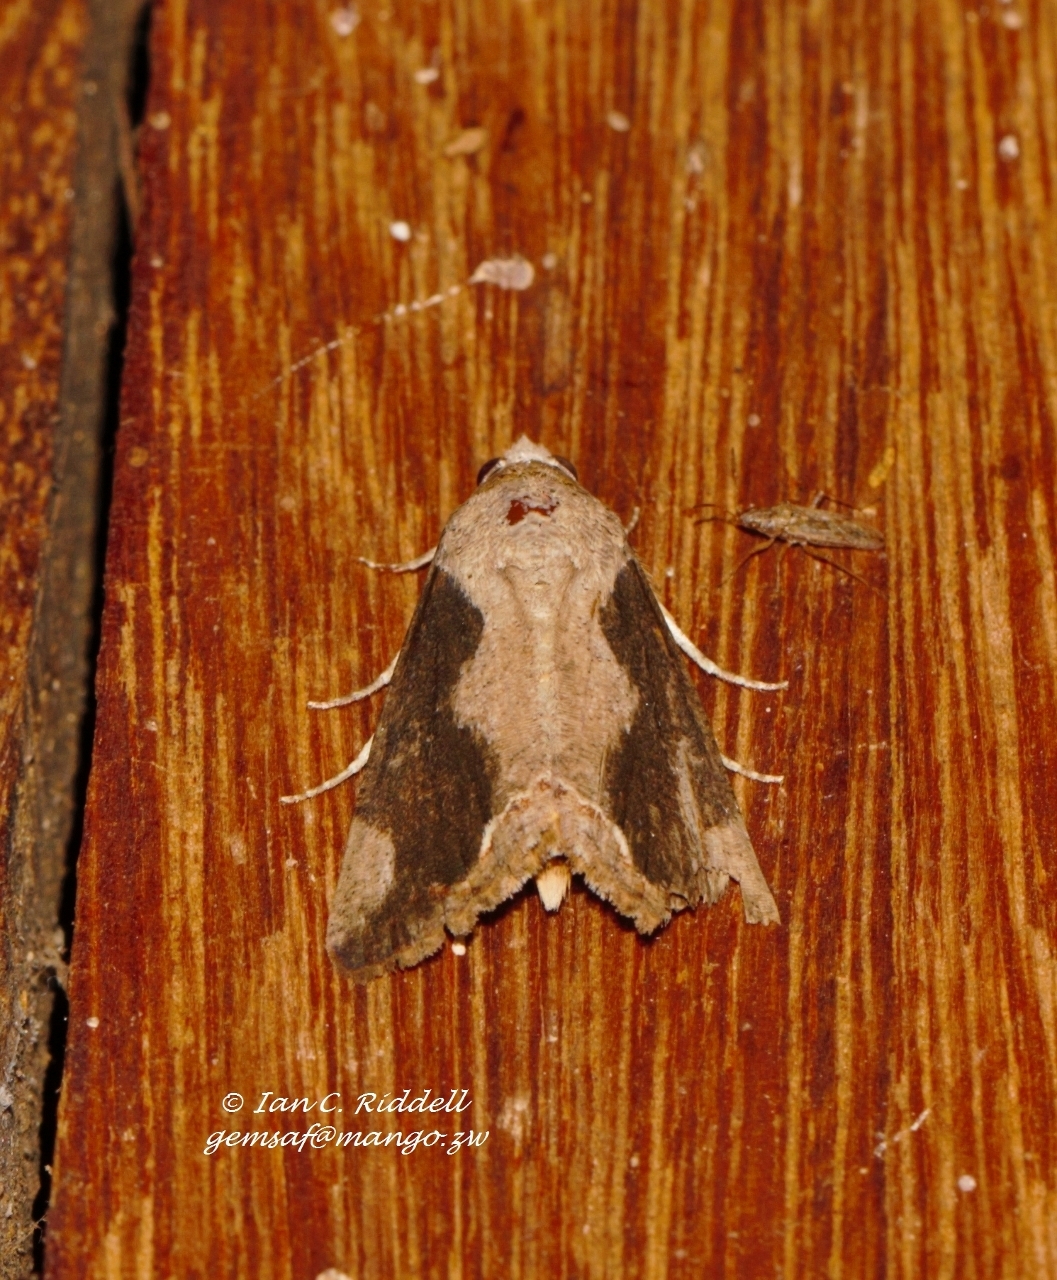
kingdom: Animalia
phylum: Arthropoda
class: Insecta
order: Lepidoptera
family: Erebidae
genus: Hypocala
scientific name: Hypocala rostrata
